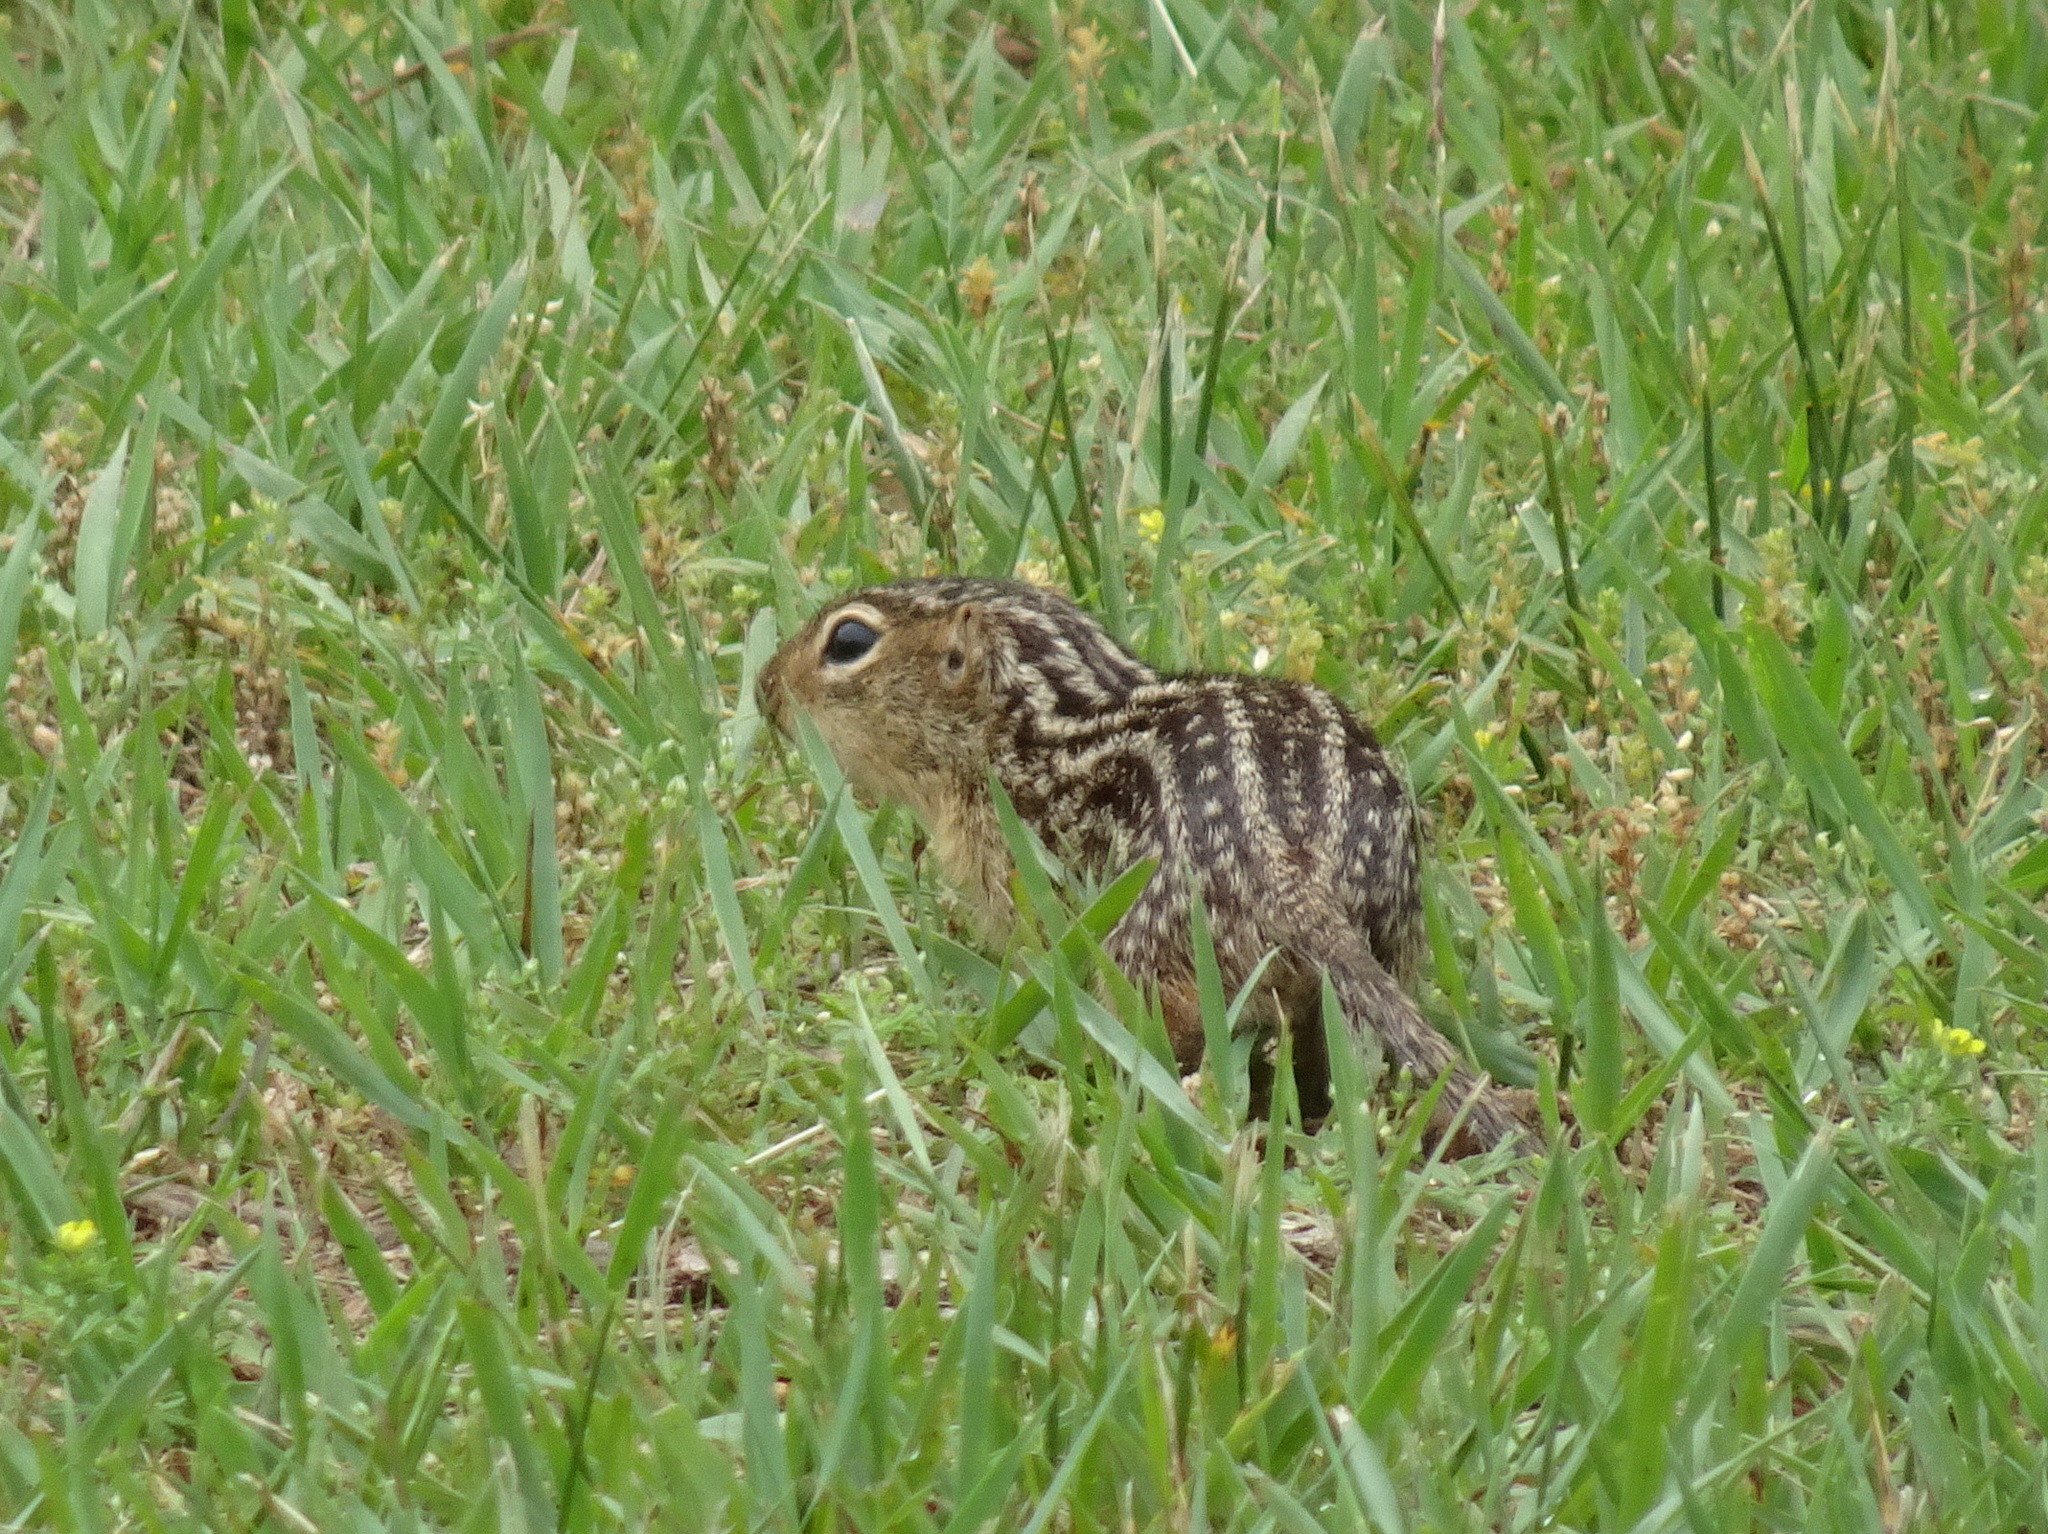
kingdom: Animalia
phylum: Chordata
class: Mammalia
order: Rodentia
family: Sciuridae
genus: Ictidomys
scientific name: Ictidomys tridecemlineatus
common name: Thirteen-lined ground squirrel
